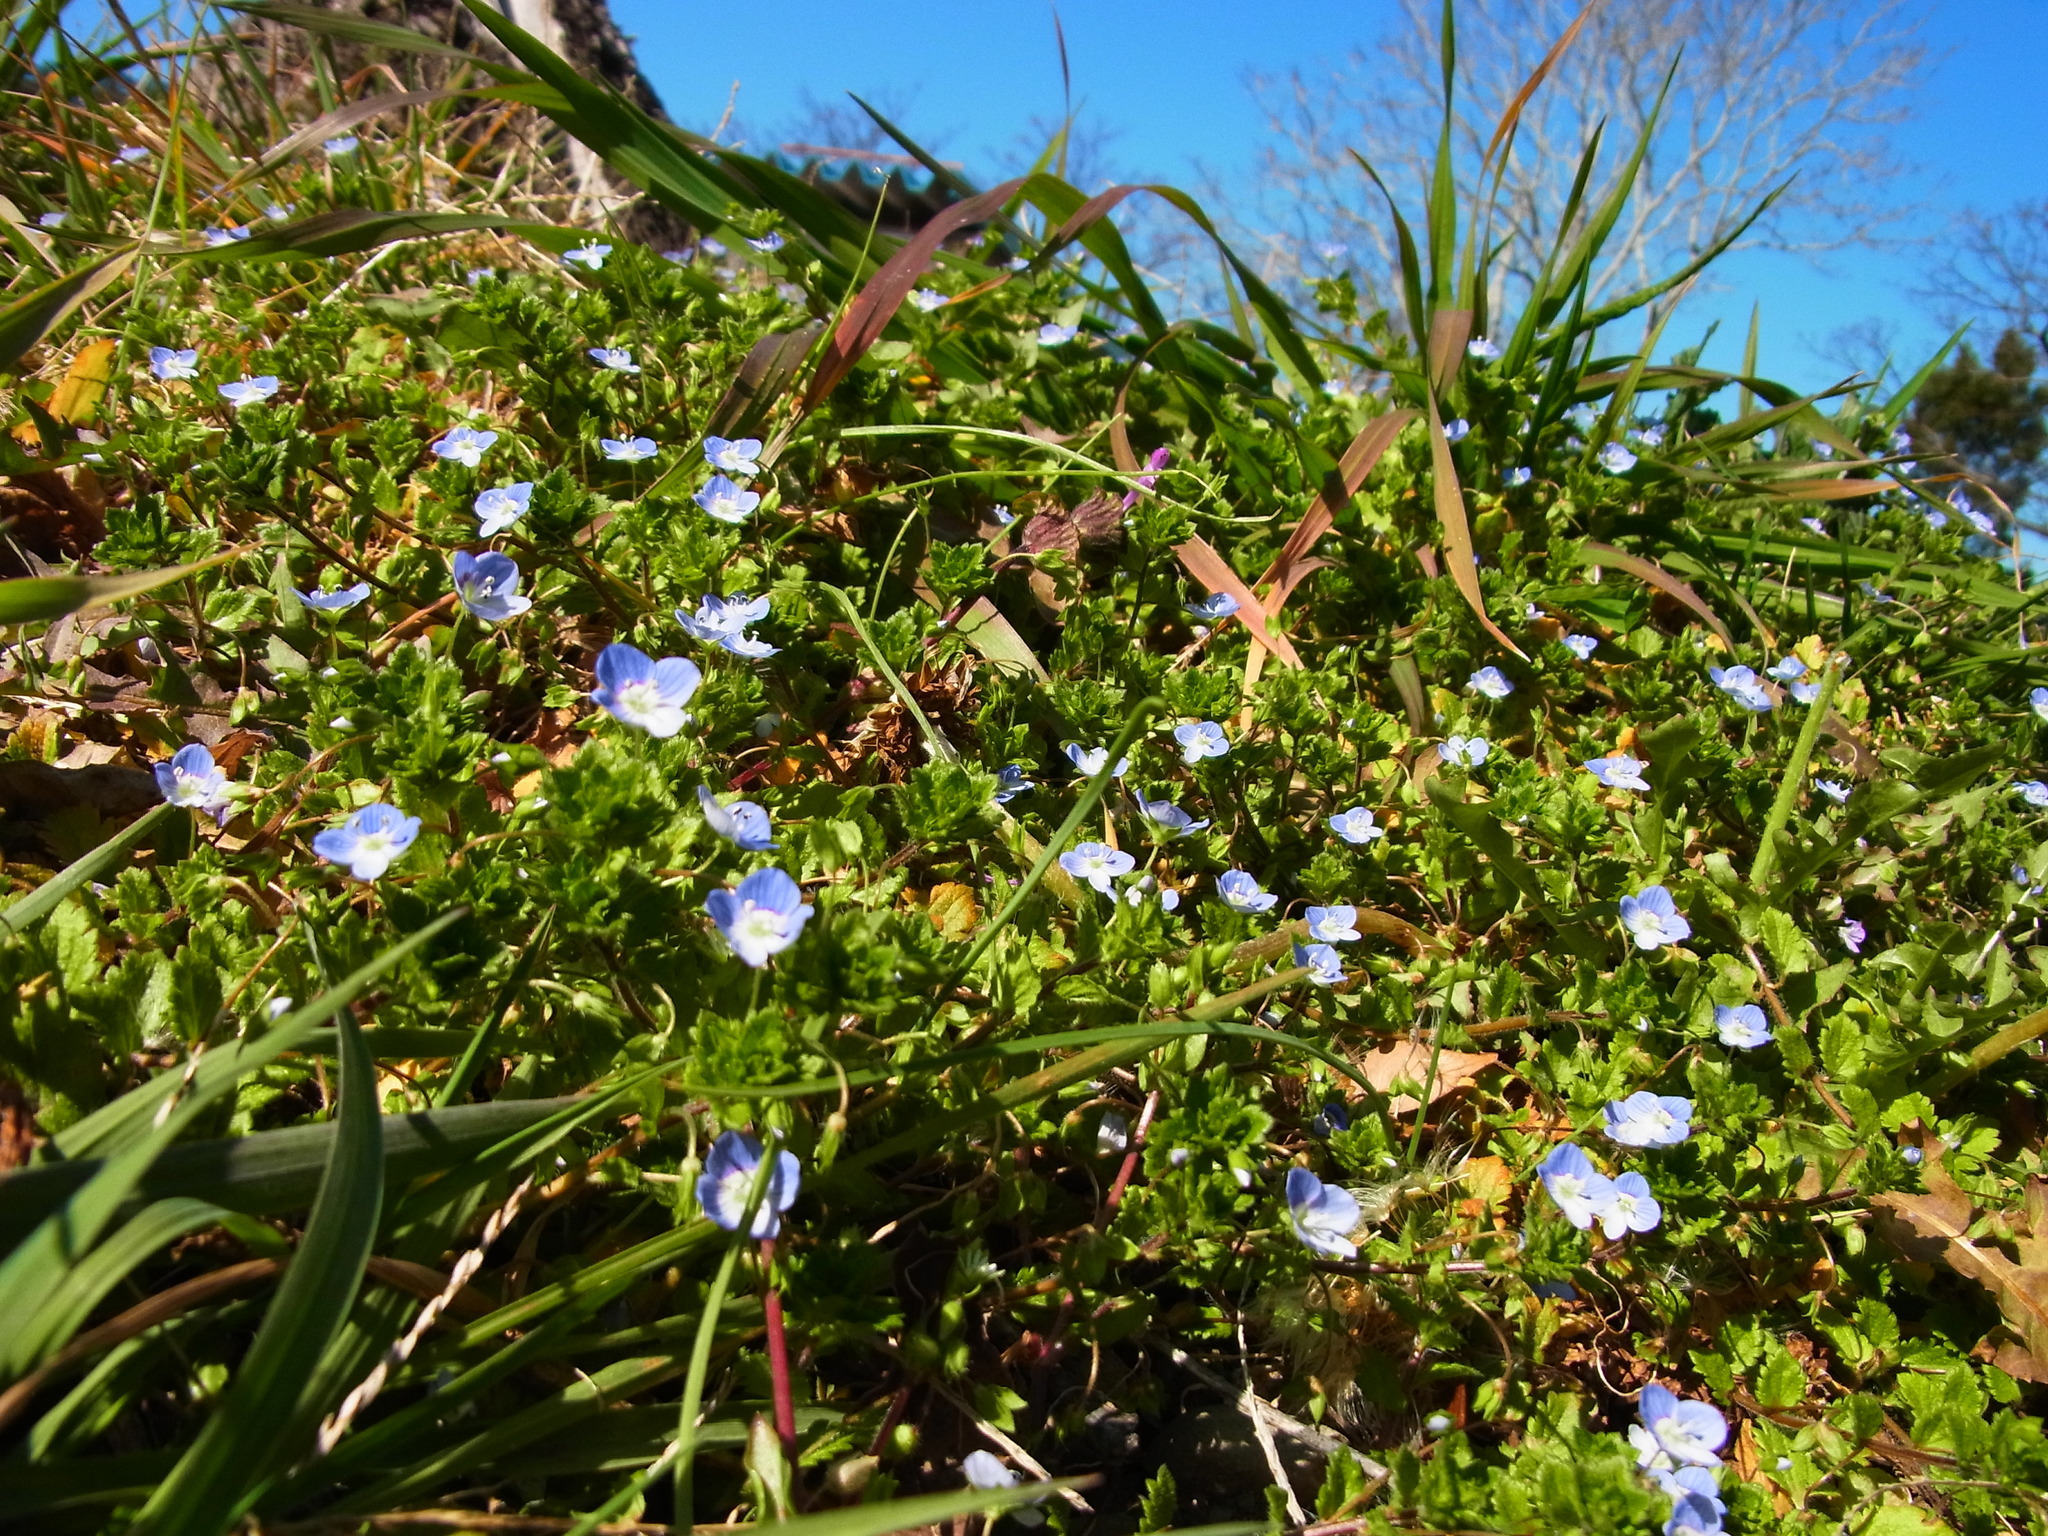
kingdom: Plantae
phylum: Tracheophyta
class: Magnoliopsida
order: Lamiales
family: Plantaginaceae
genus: Veronica
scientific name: Veronica persica
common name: Common field-speedwell
